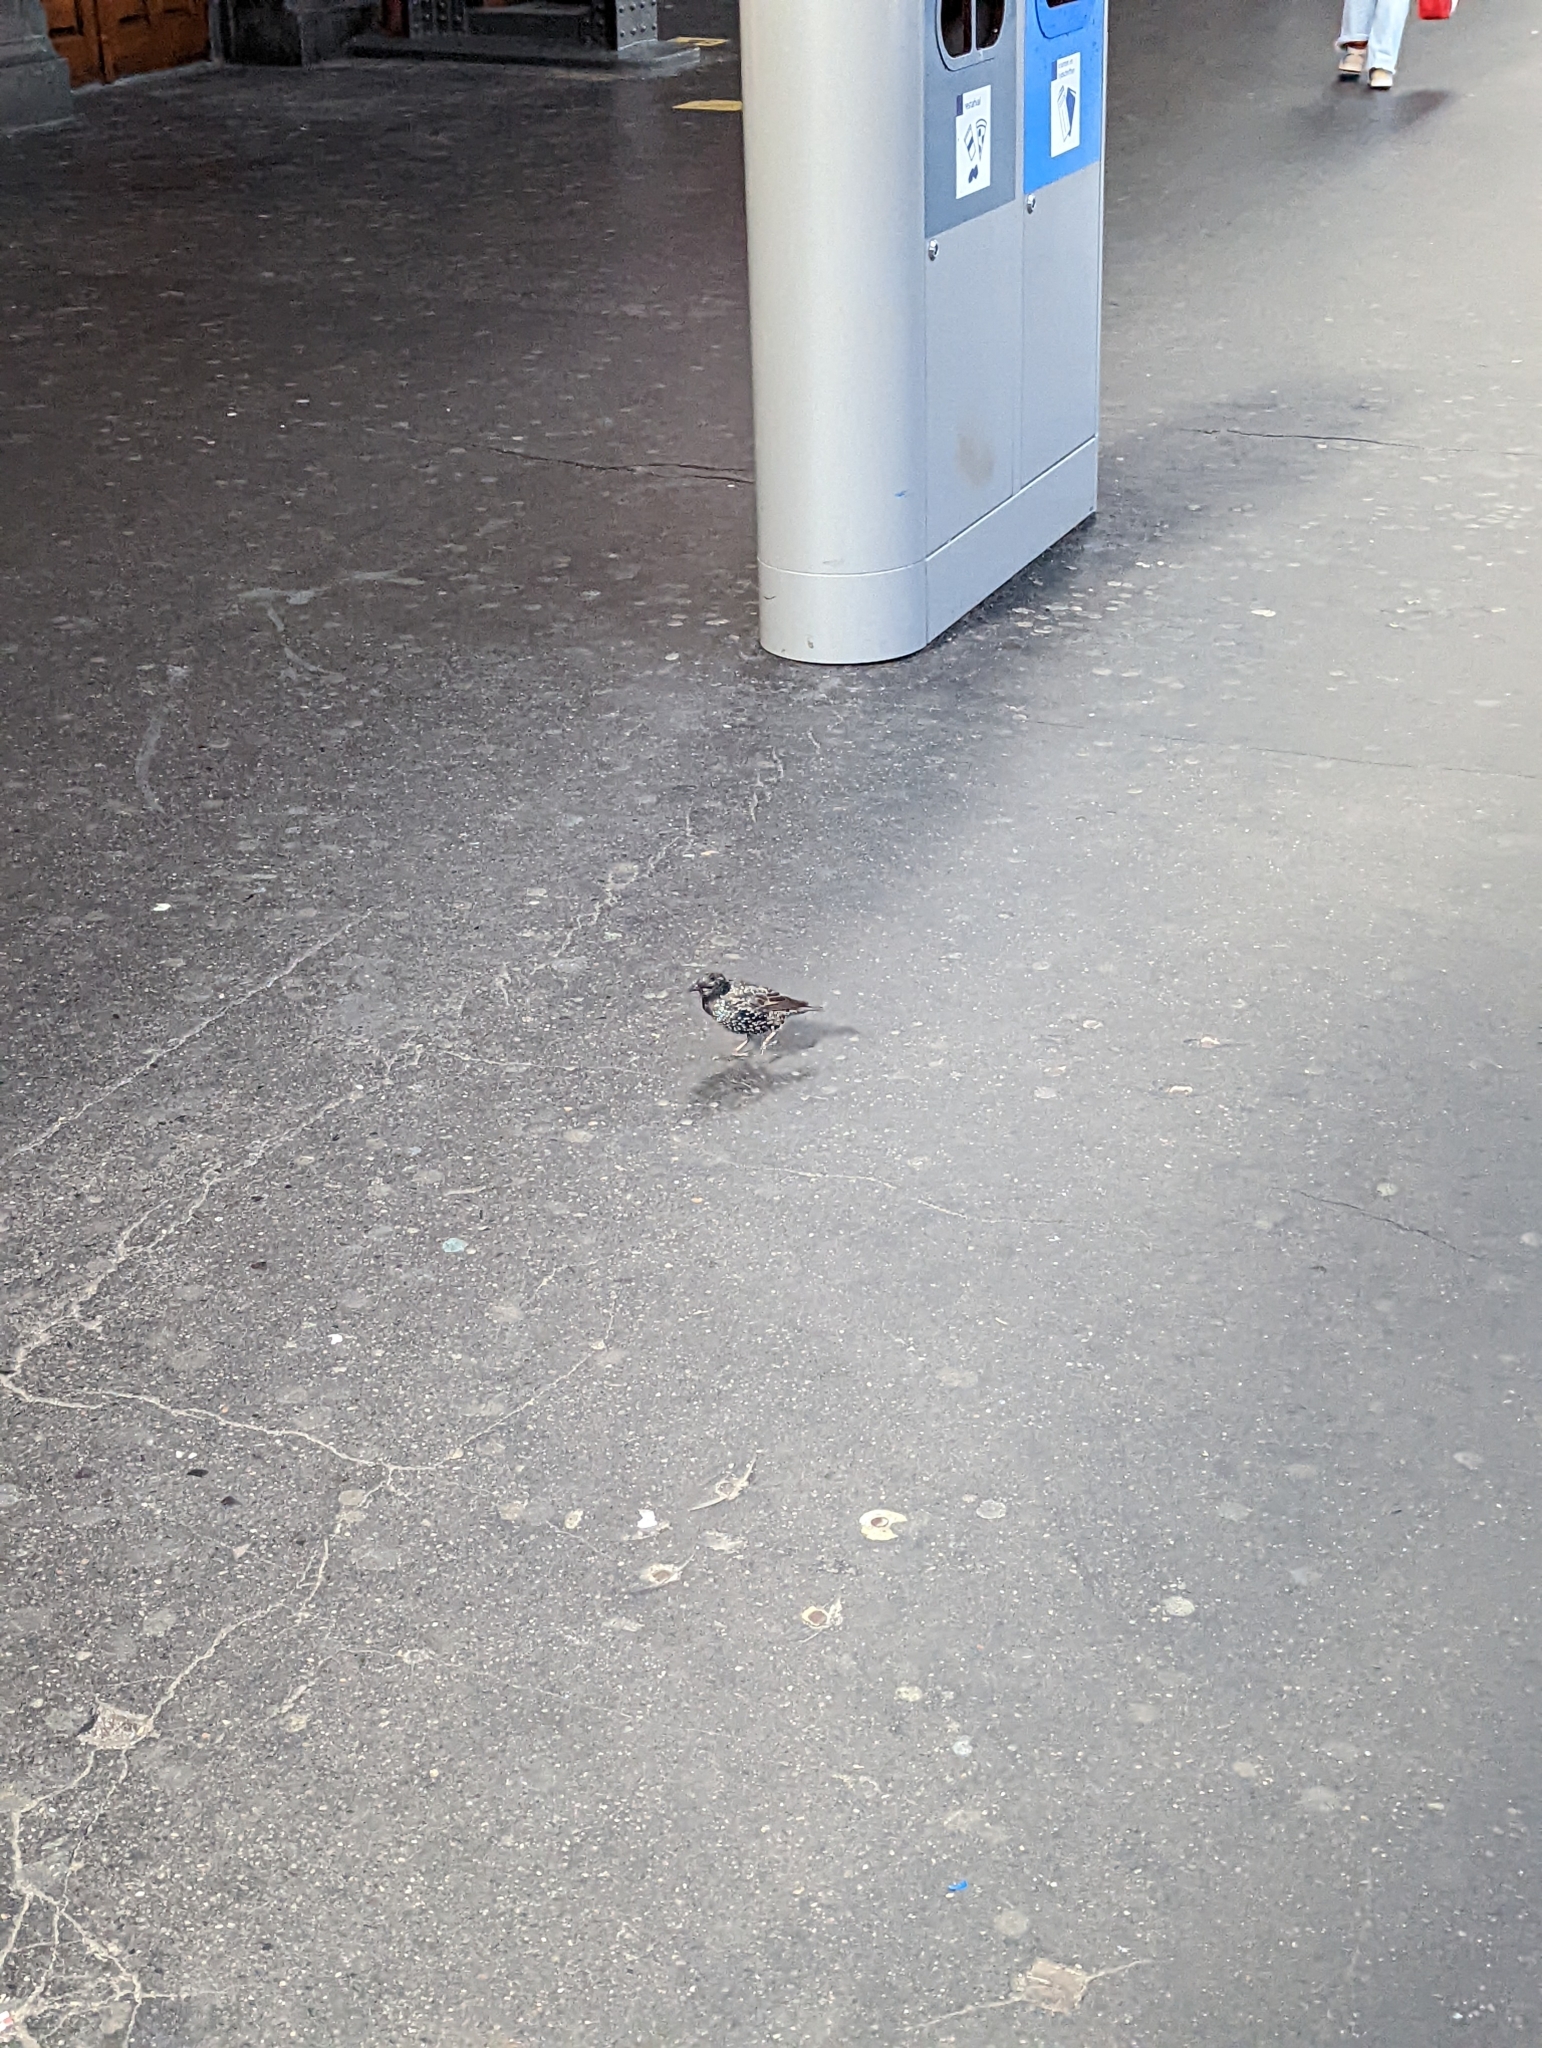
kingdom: Animalia
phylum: Chordata
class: Aves
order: Passeriformes
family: Sturnidae
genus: Sturnus
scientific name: Sturnus vulgaris
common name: Common starling
